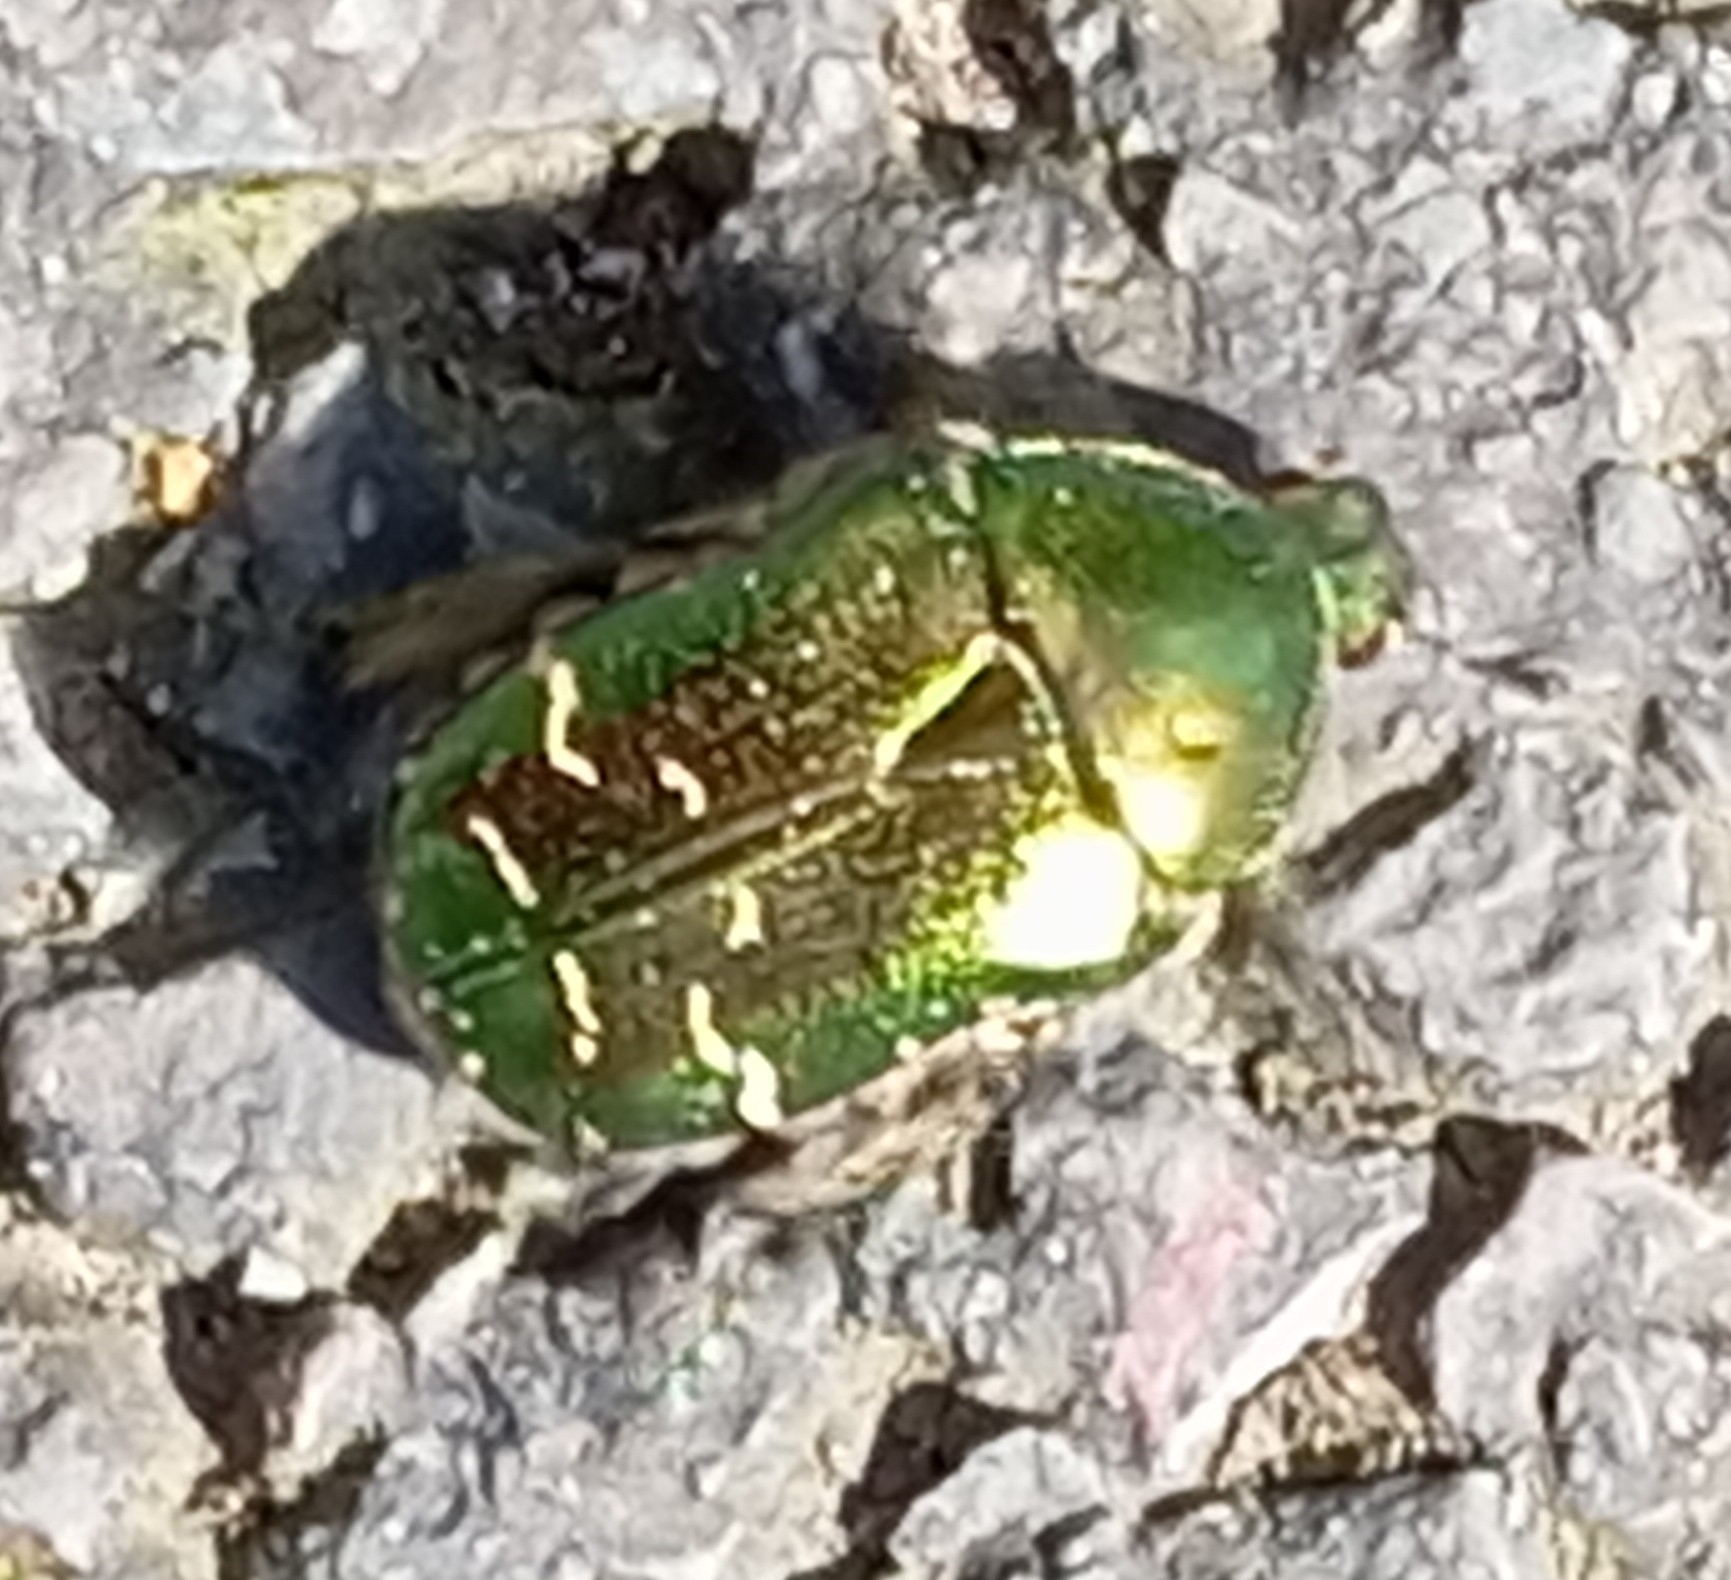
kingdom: Animalia
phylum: Arthropoda
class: Insecta
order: Coleoptera
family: Scarabaeidae
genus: Cetonia
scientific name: Cetonia aurata
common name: Rose chafer
